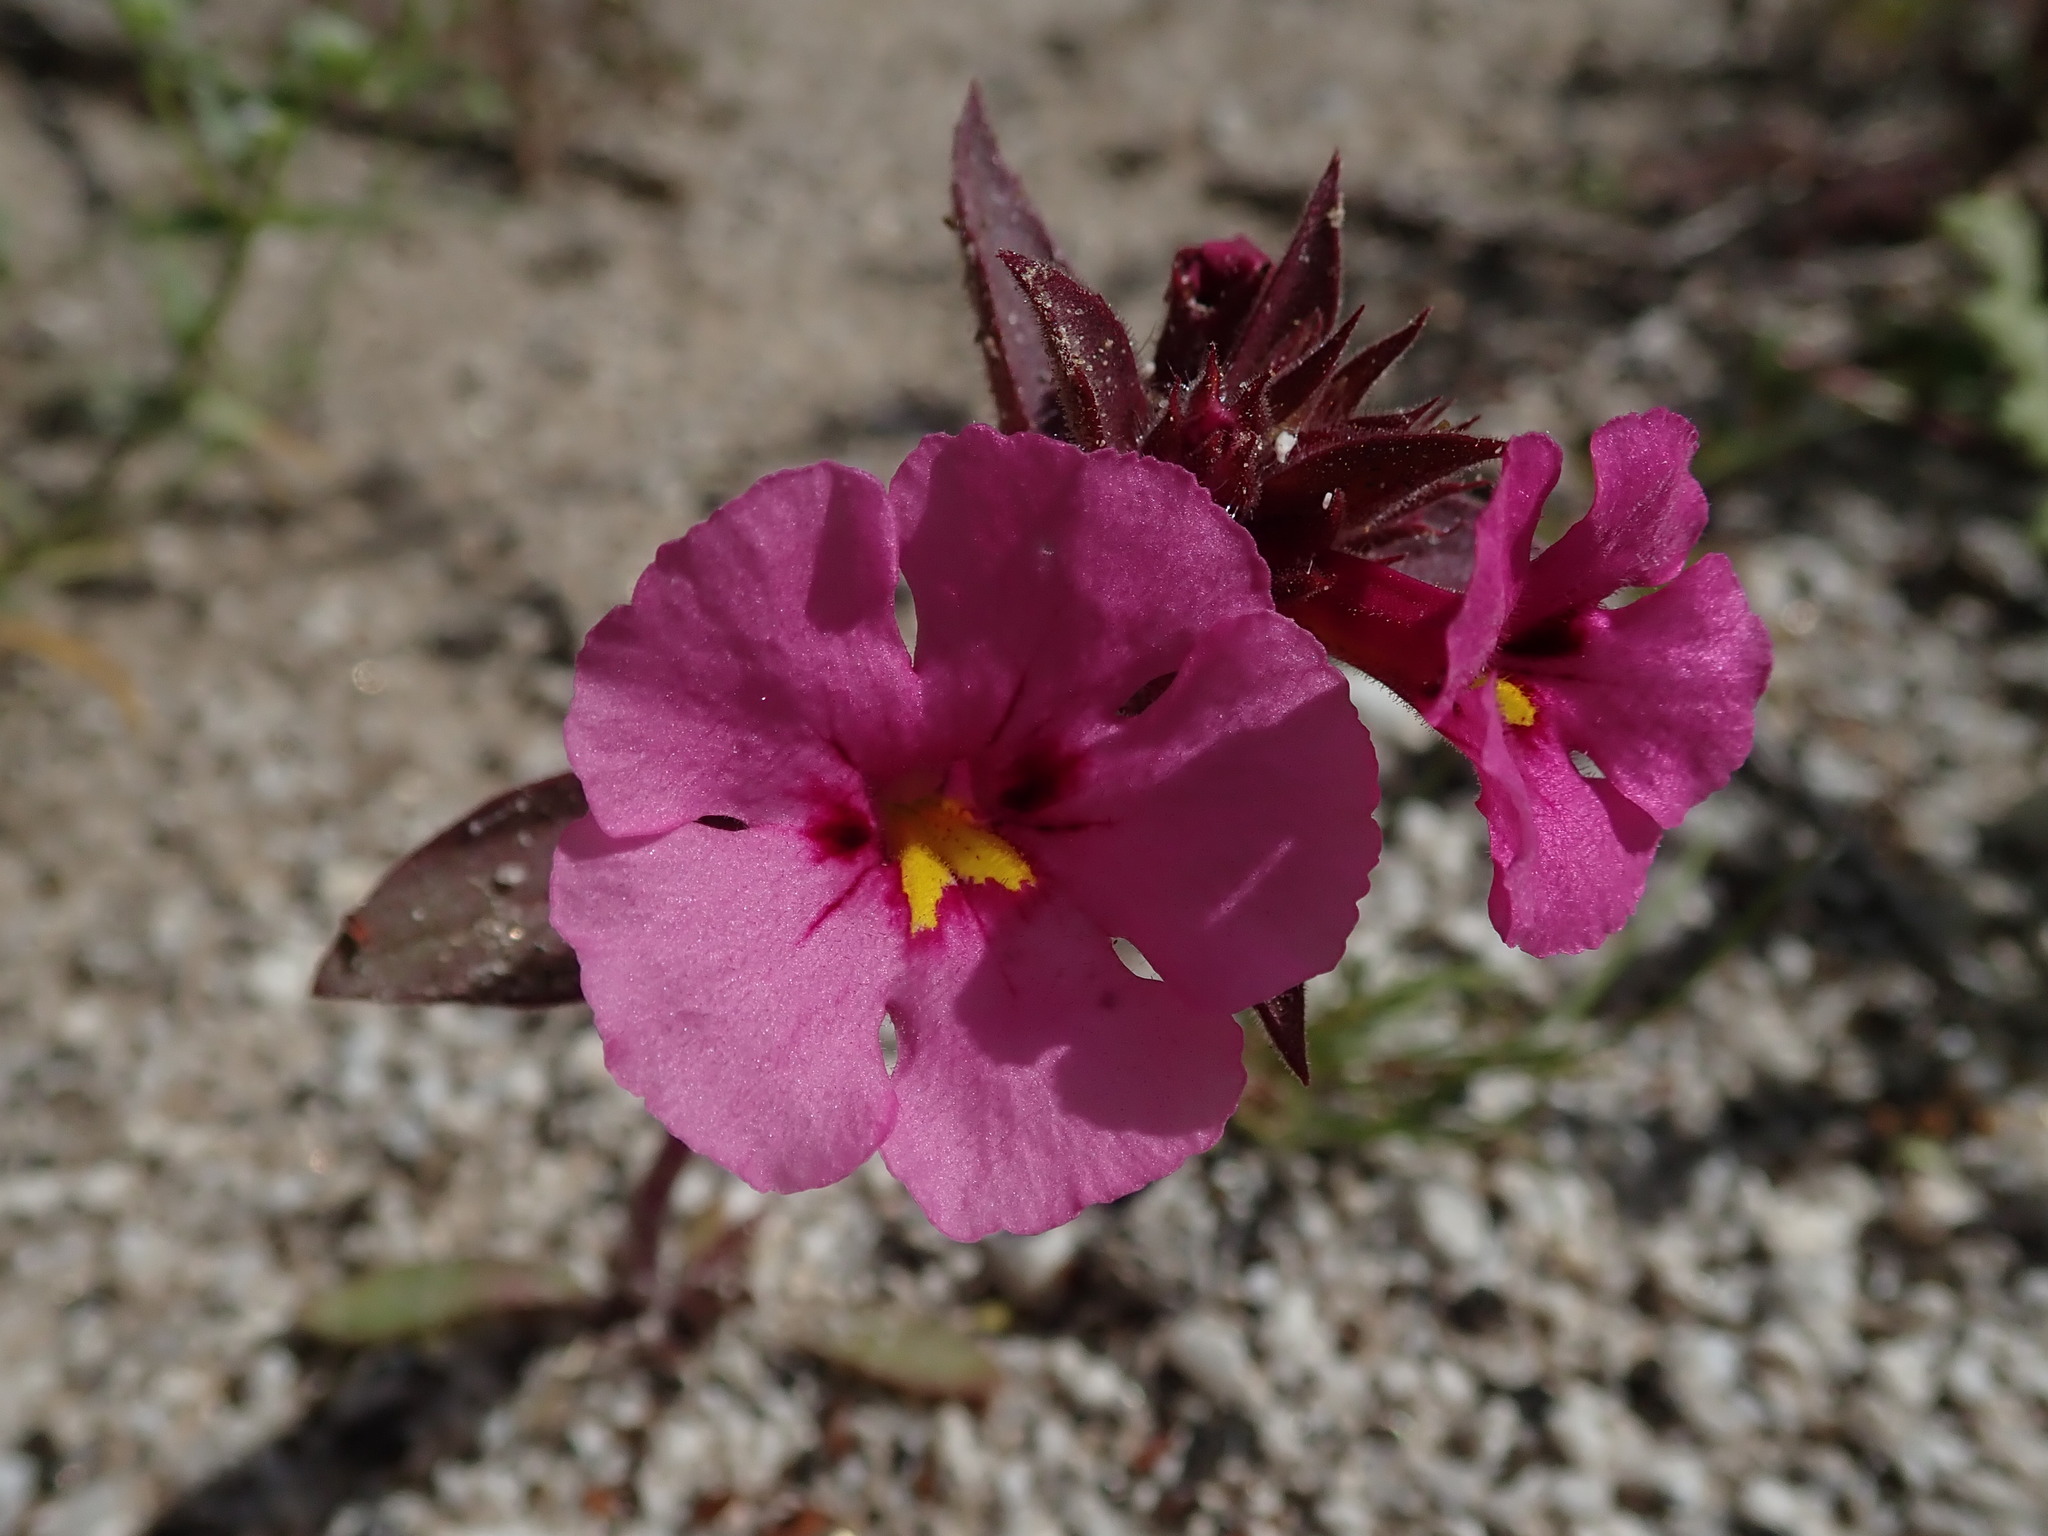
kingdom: Plantae
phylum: Tracheophyta
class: Magnoliopsida
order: Lamiales
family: Phrymaceae
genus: Diplacus
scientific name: Diplacus bigelovii
